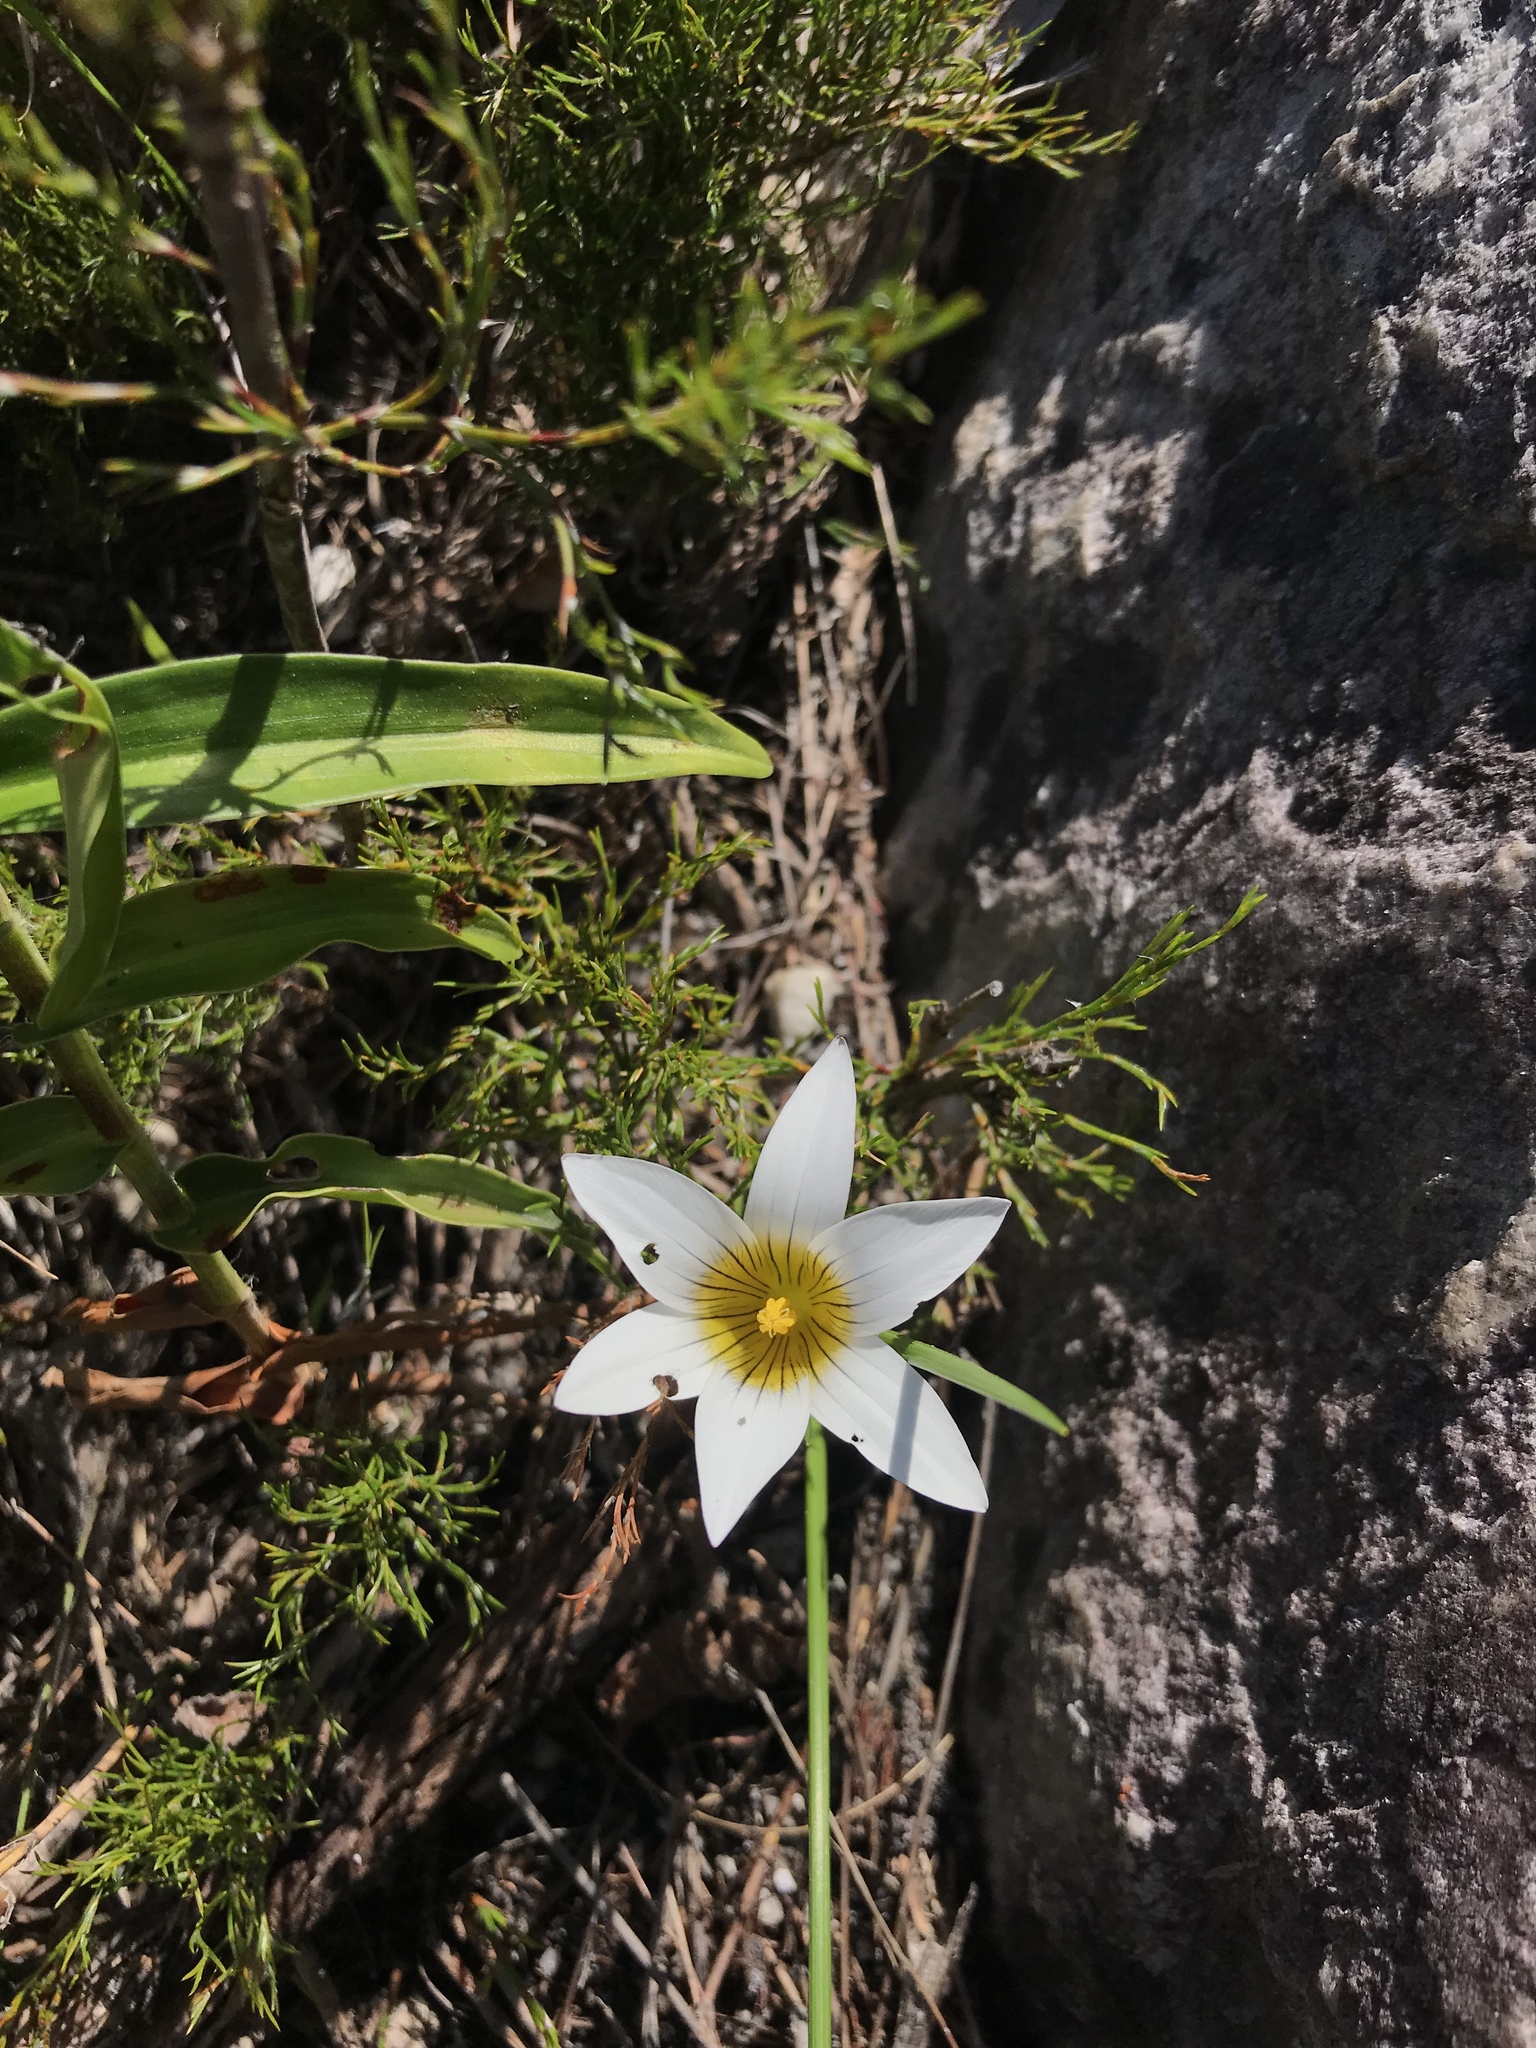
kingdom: Plantae
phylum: Tracheophyta
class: Liliopsida
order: Asparagales
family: Iridaceae
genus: Romulea
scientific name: Romulea flava
